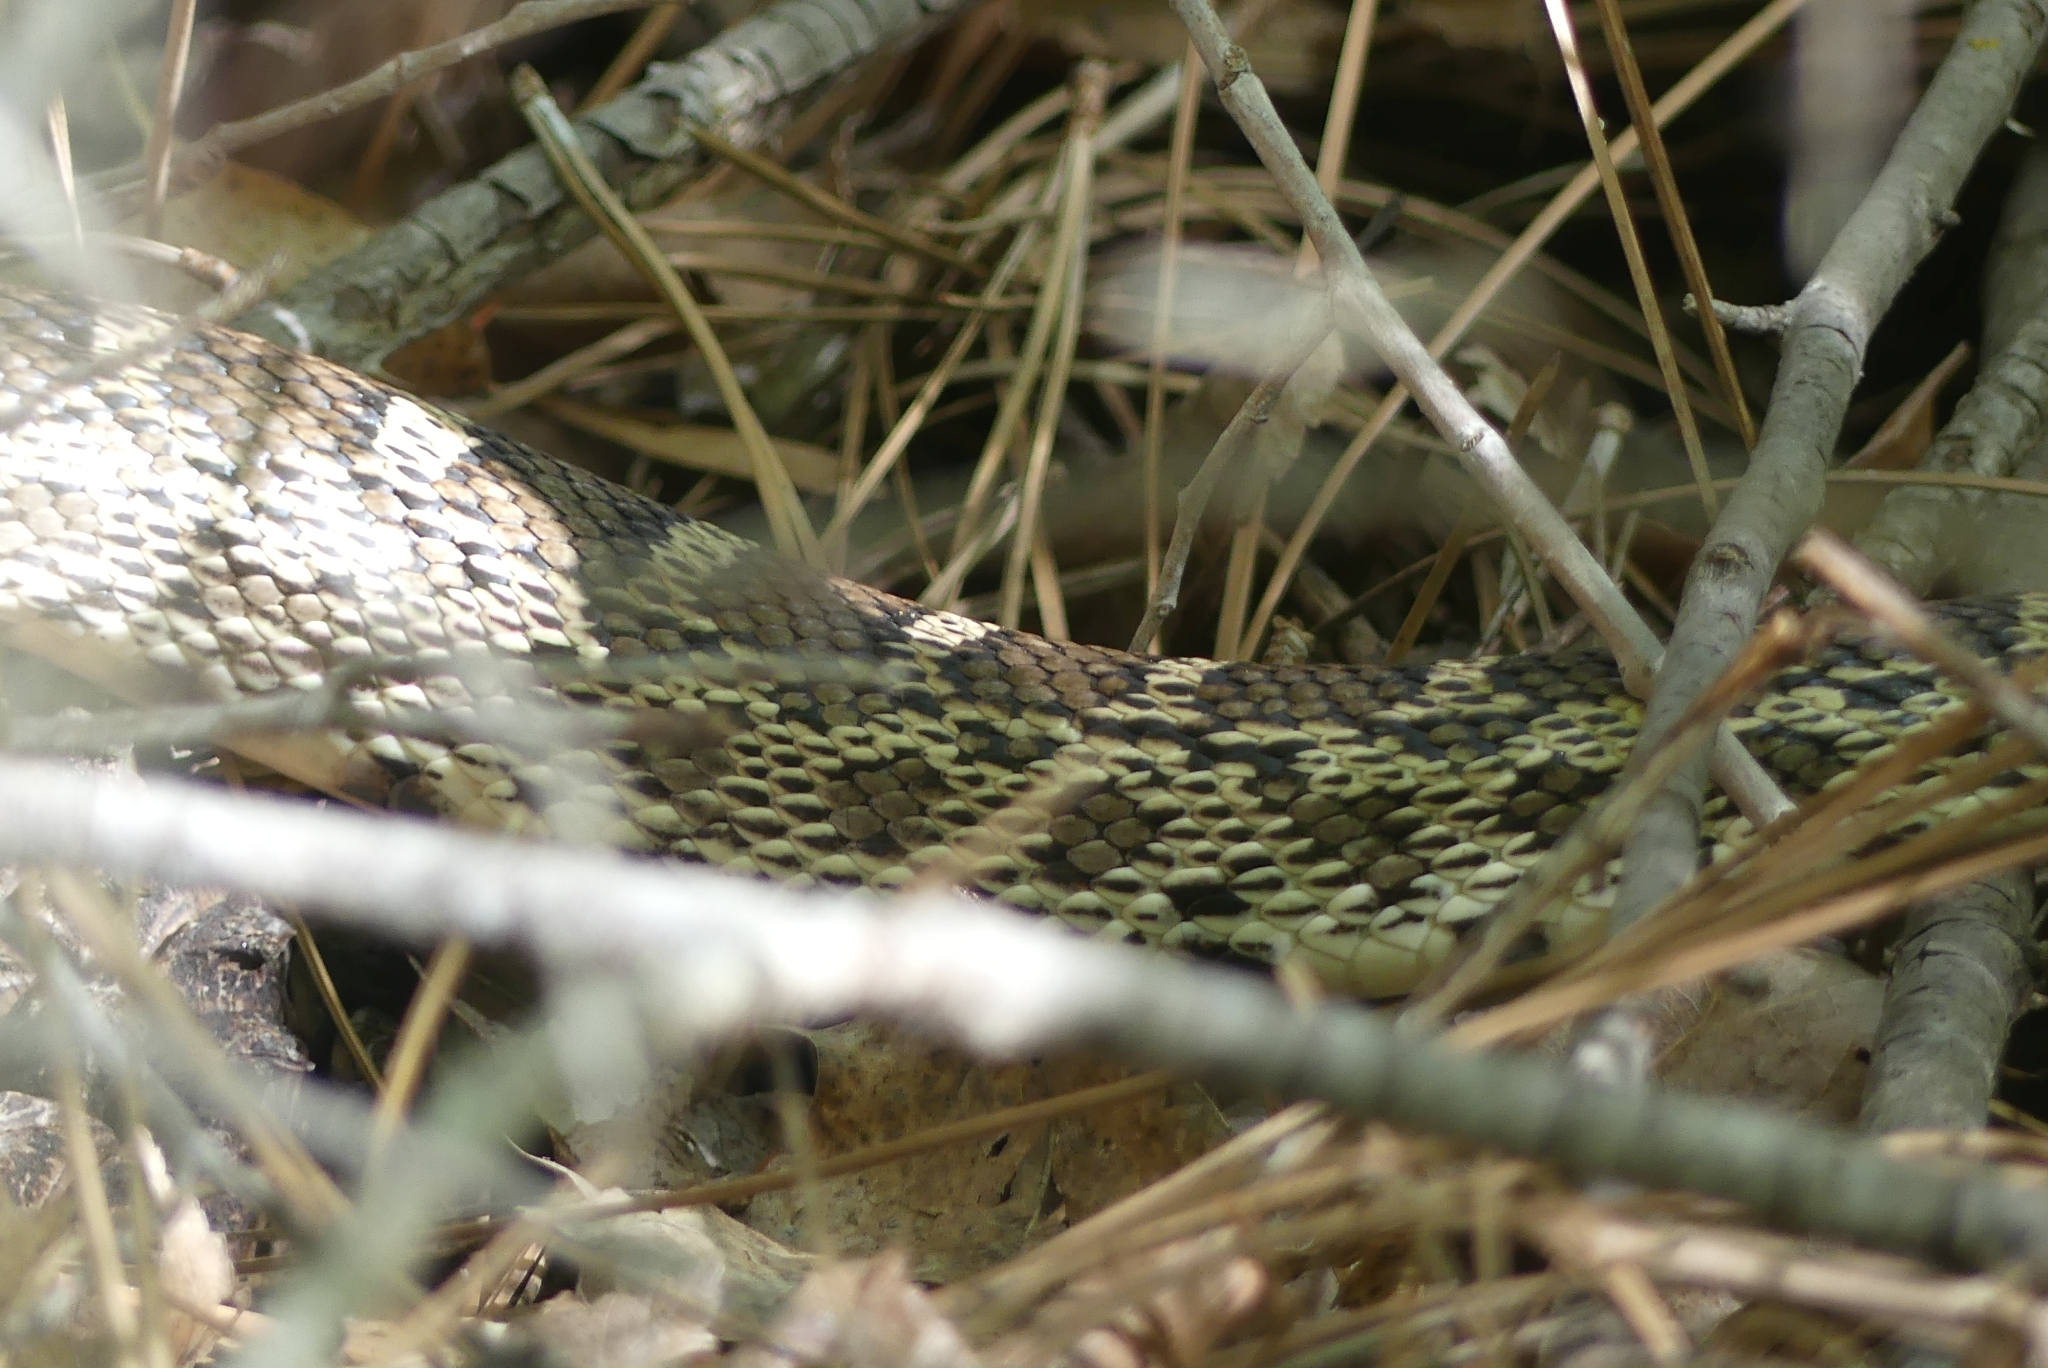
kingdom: Animalia
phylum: Chordata
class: Squamata
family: Colubridae
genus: Pituophis
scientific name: Pituophis catenifer
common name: Gopher snake
